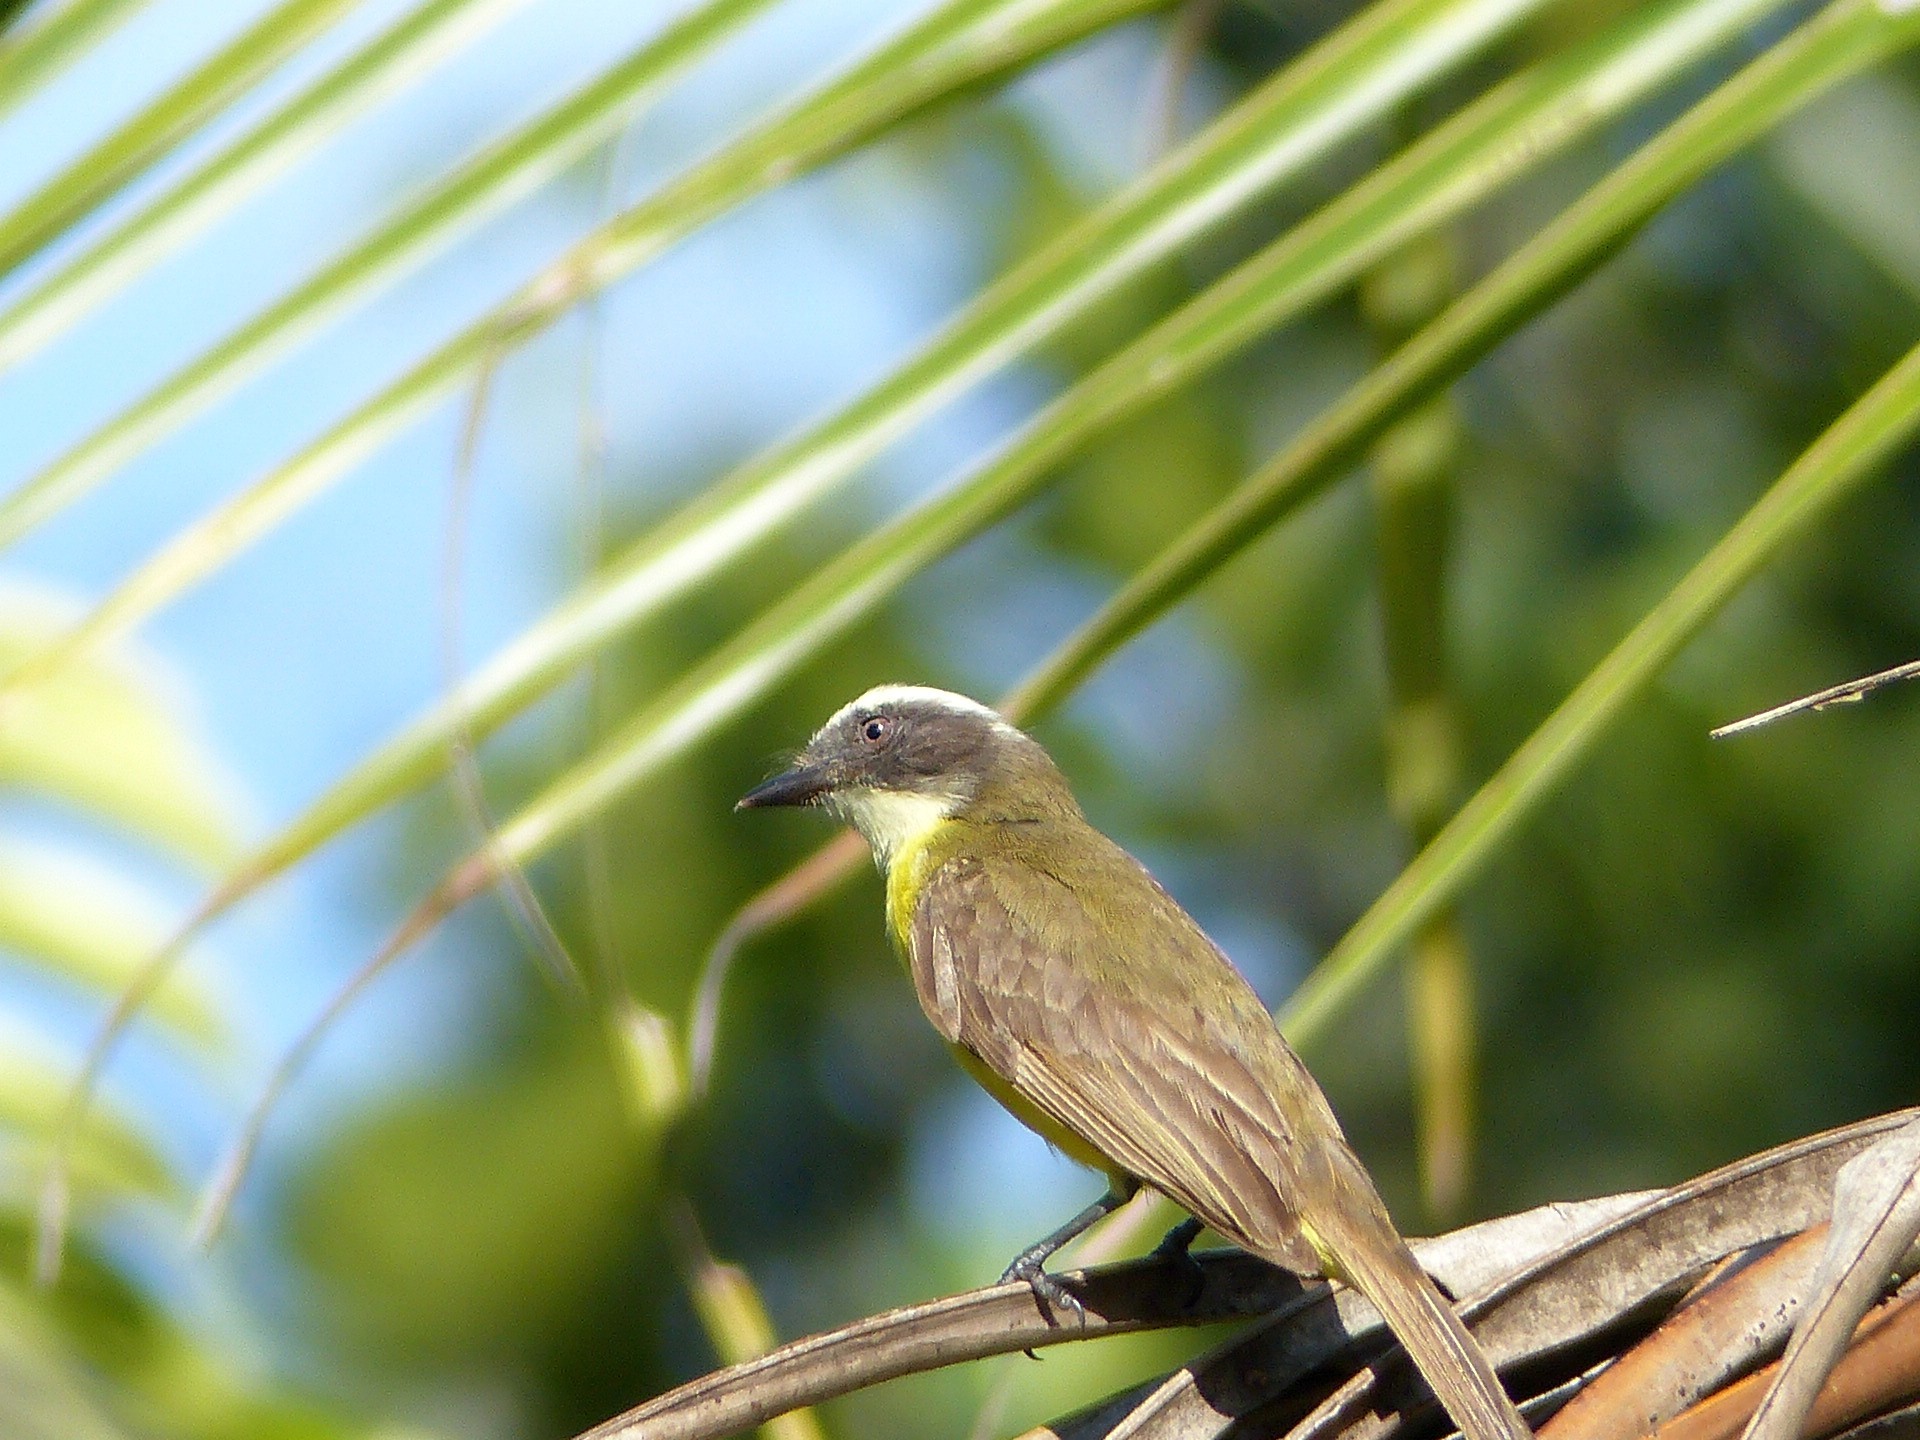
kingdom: Animalia
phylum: Chordata
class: Aves
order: Passeriformes
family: Tyrannidae
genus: Myiozetetes
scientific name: Myiozetetes similis
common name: Social flycatcher
